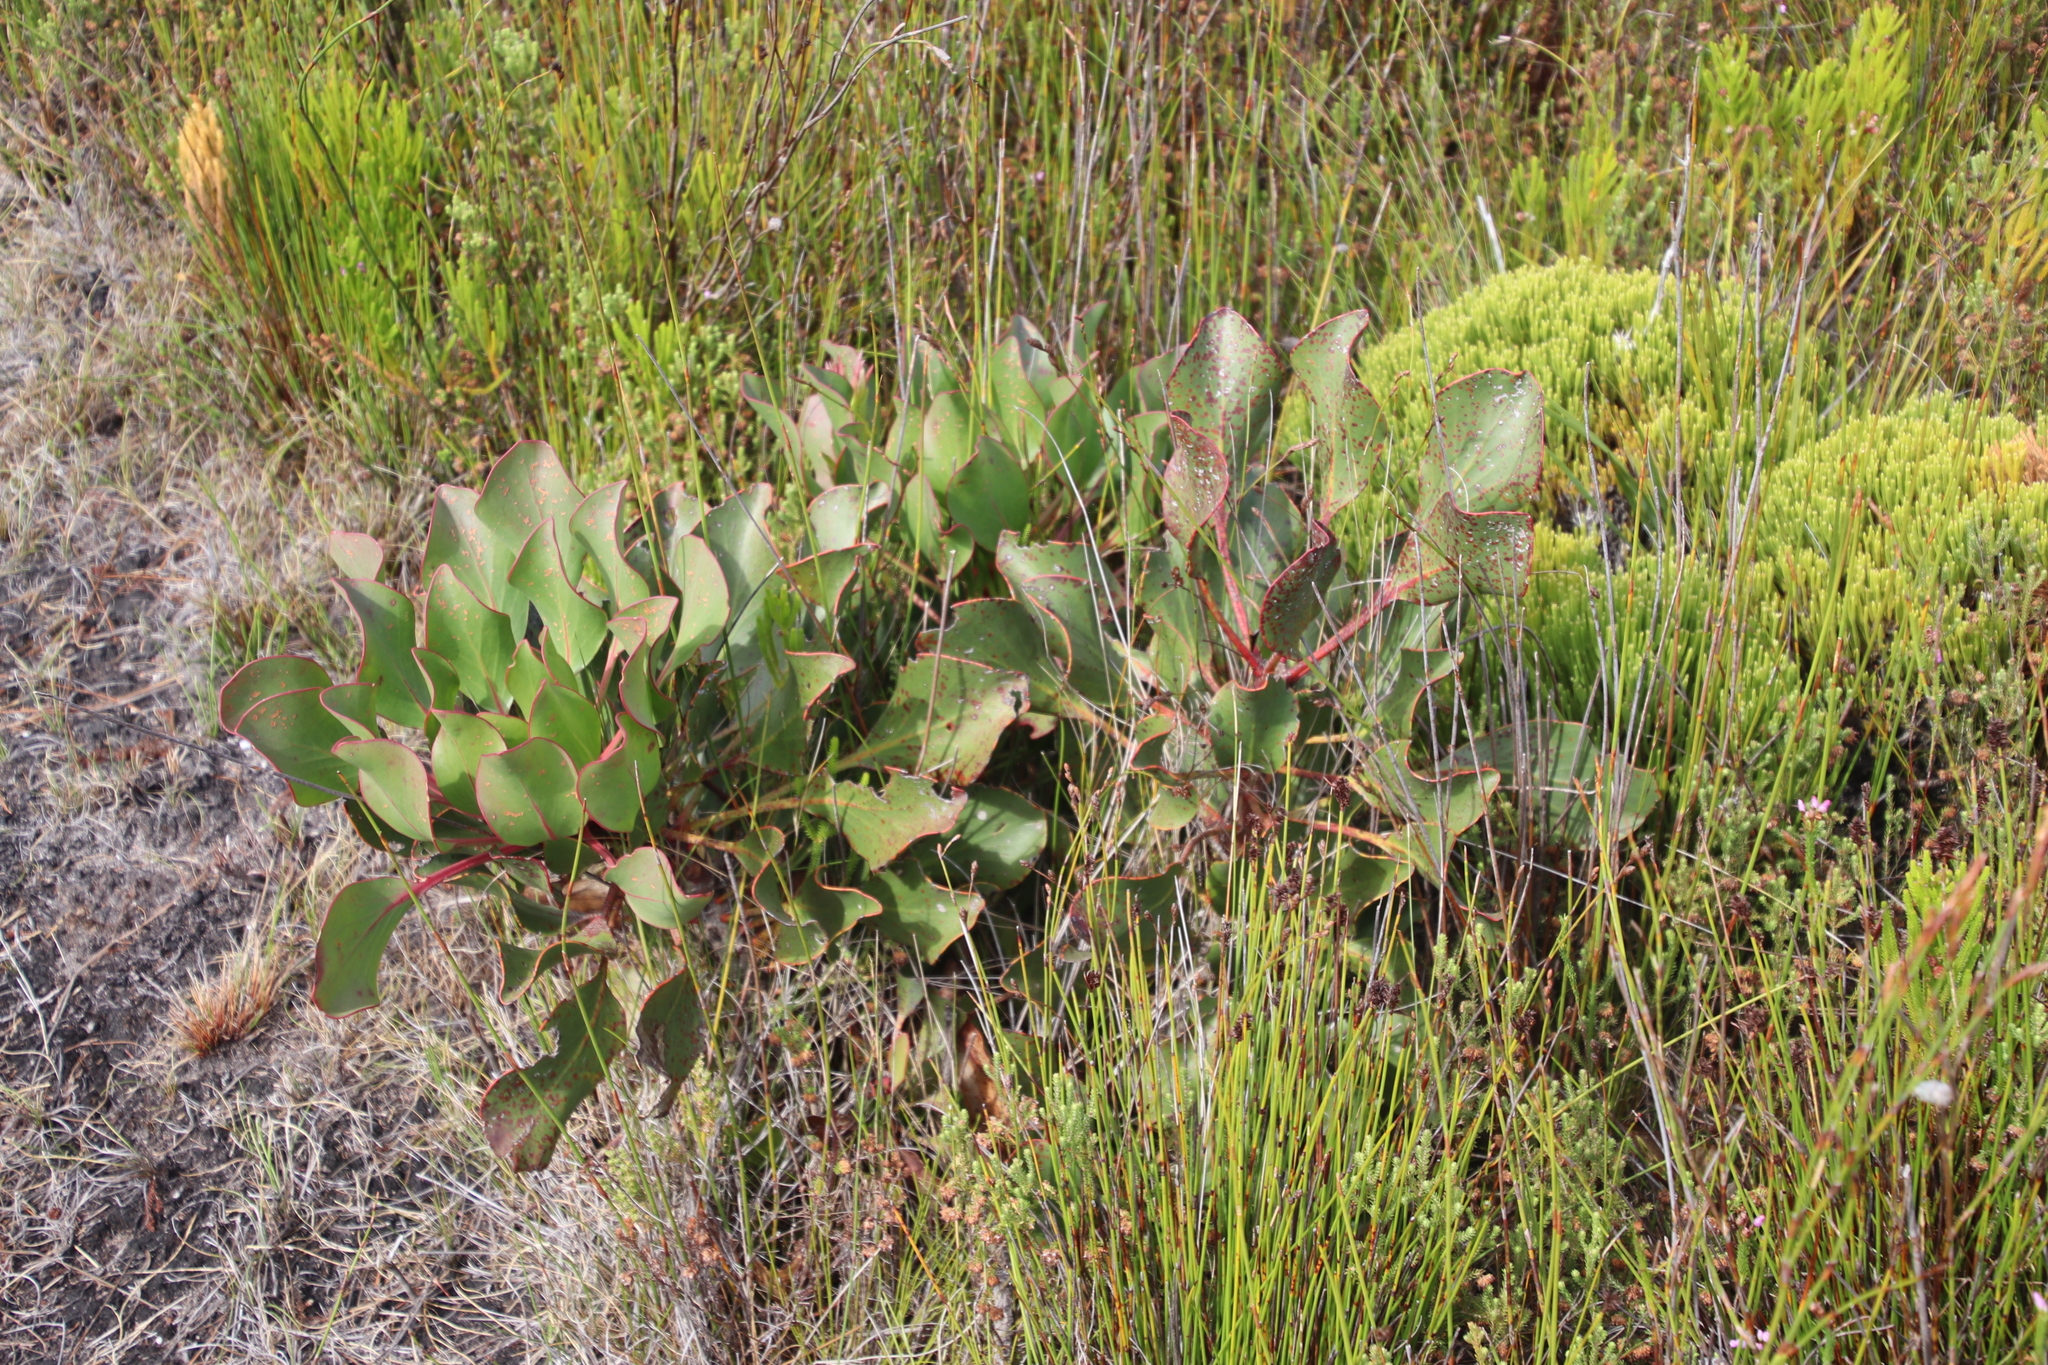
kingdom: Plantae
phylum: Tracheophyta
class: Magnoliopsida
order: Proteales
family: Proteaceae
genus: Protea
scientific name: Protea cynaroides
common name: King protea
